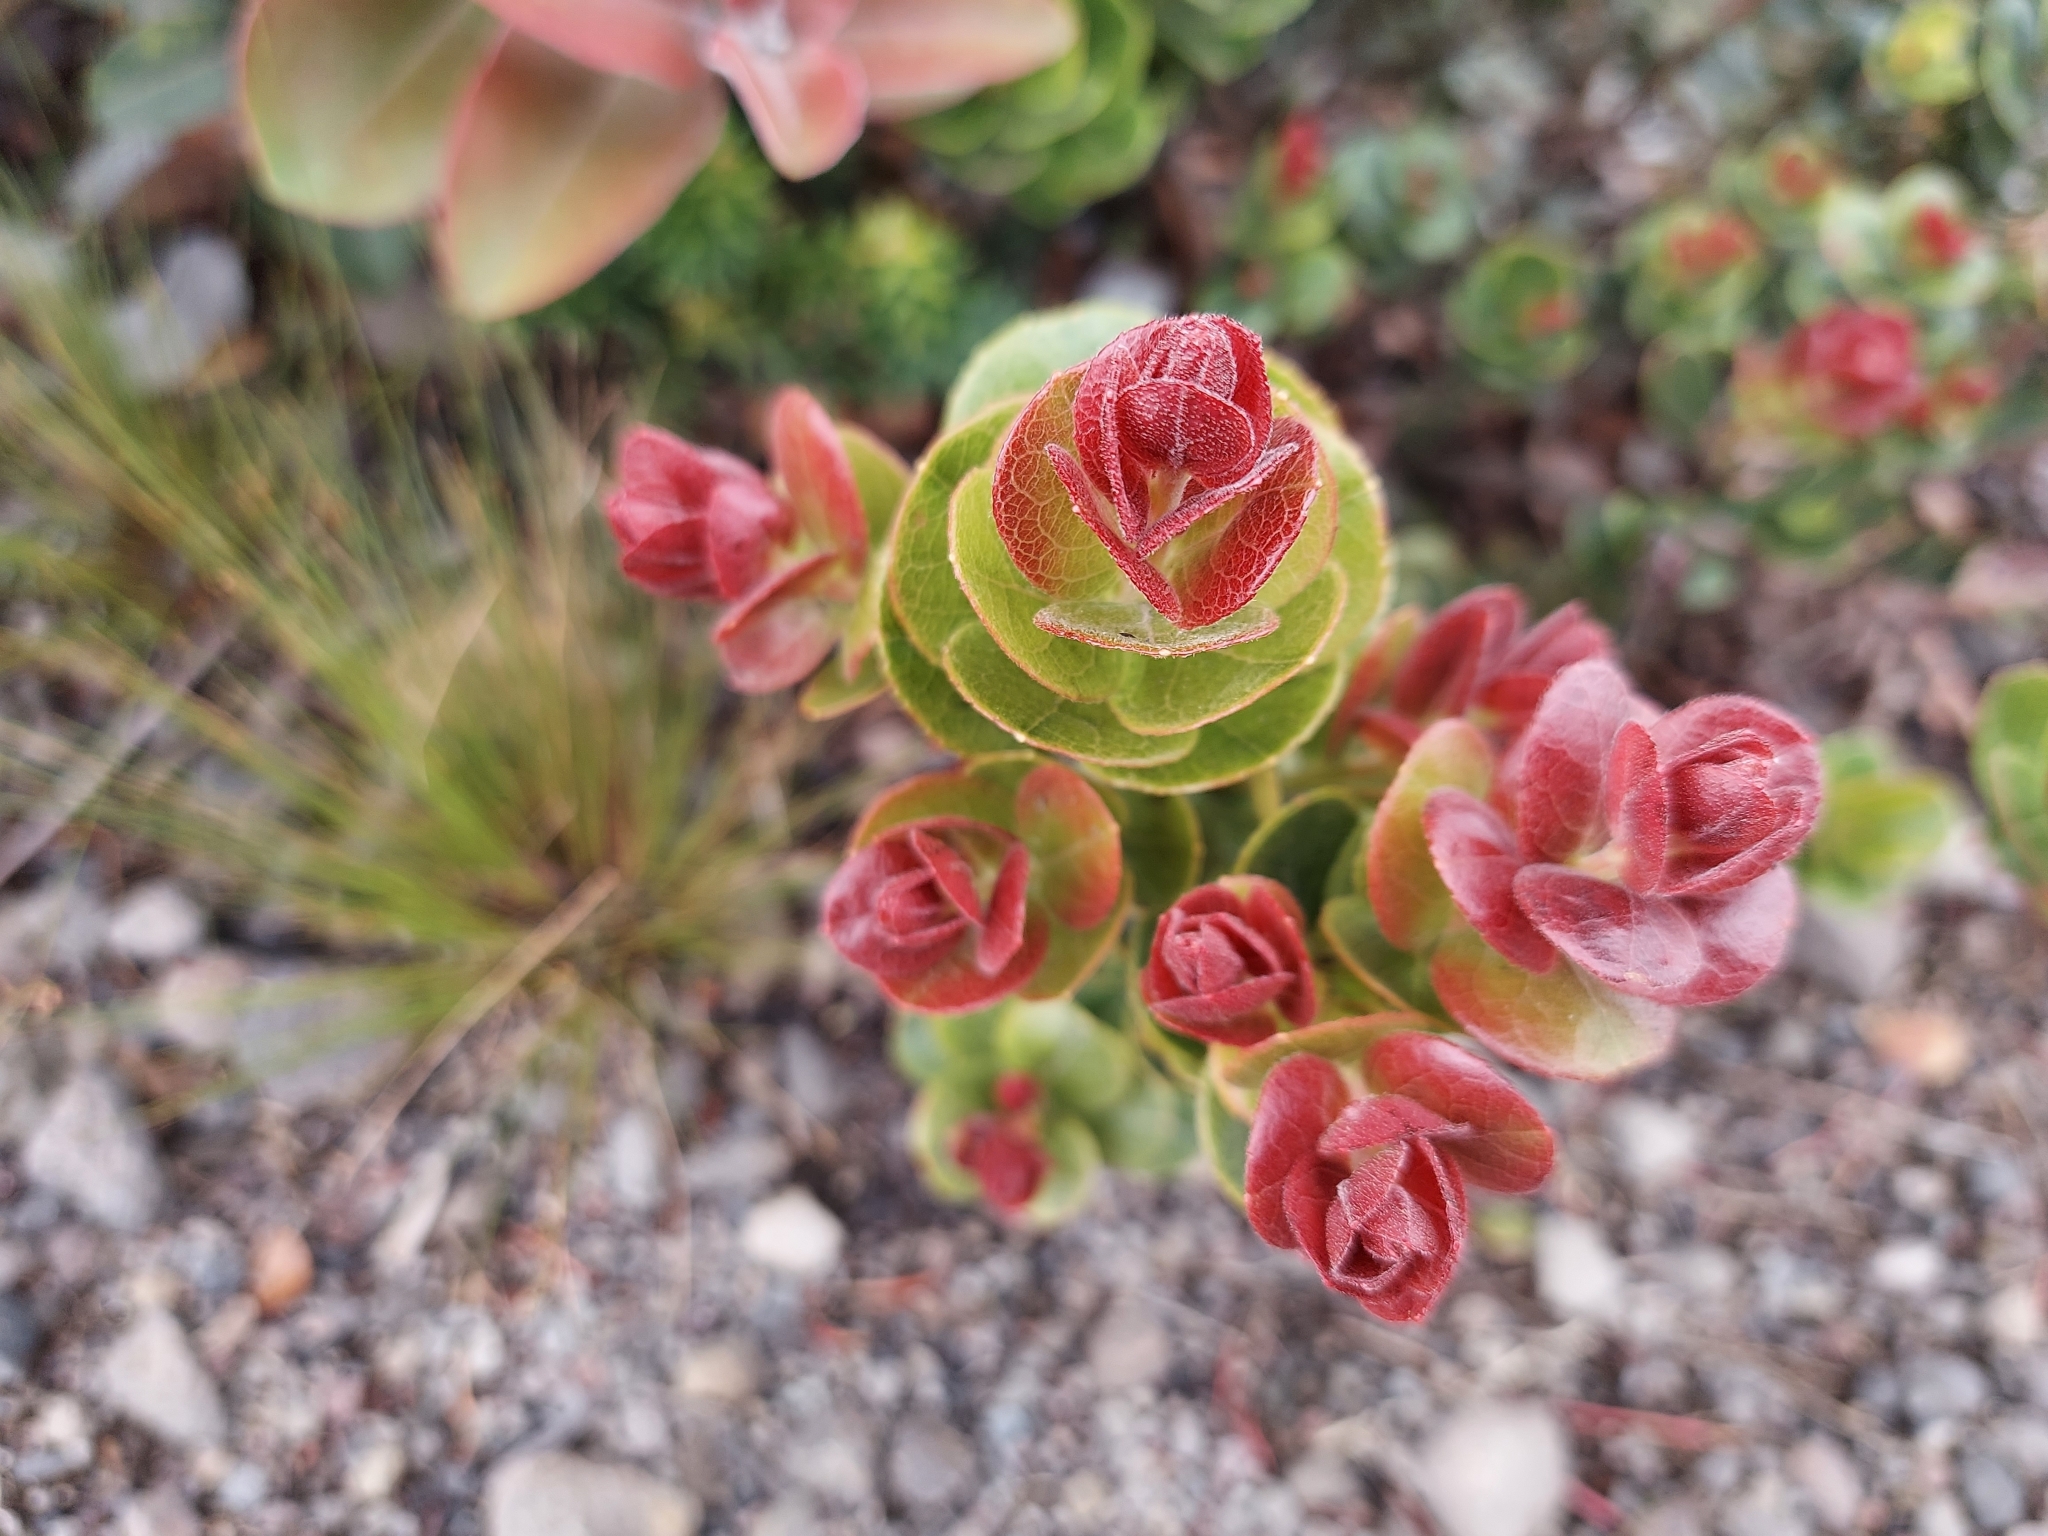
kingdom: Plantae
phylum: Tracheophyta
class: Magnoliopsida
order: Ericales
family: Ericaceae
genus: Vaccinium
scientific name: Vaccinium reticulatum
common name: Ohelo
